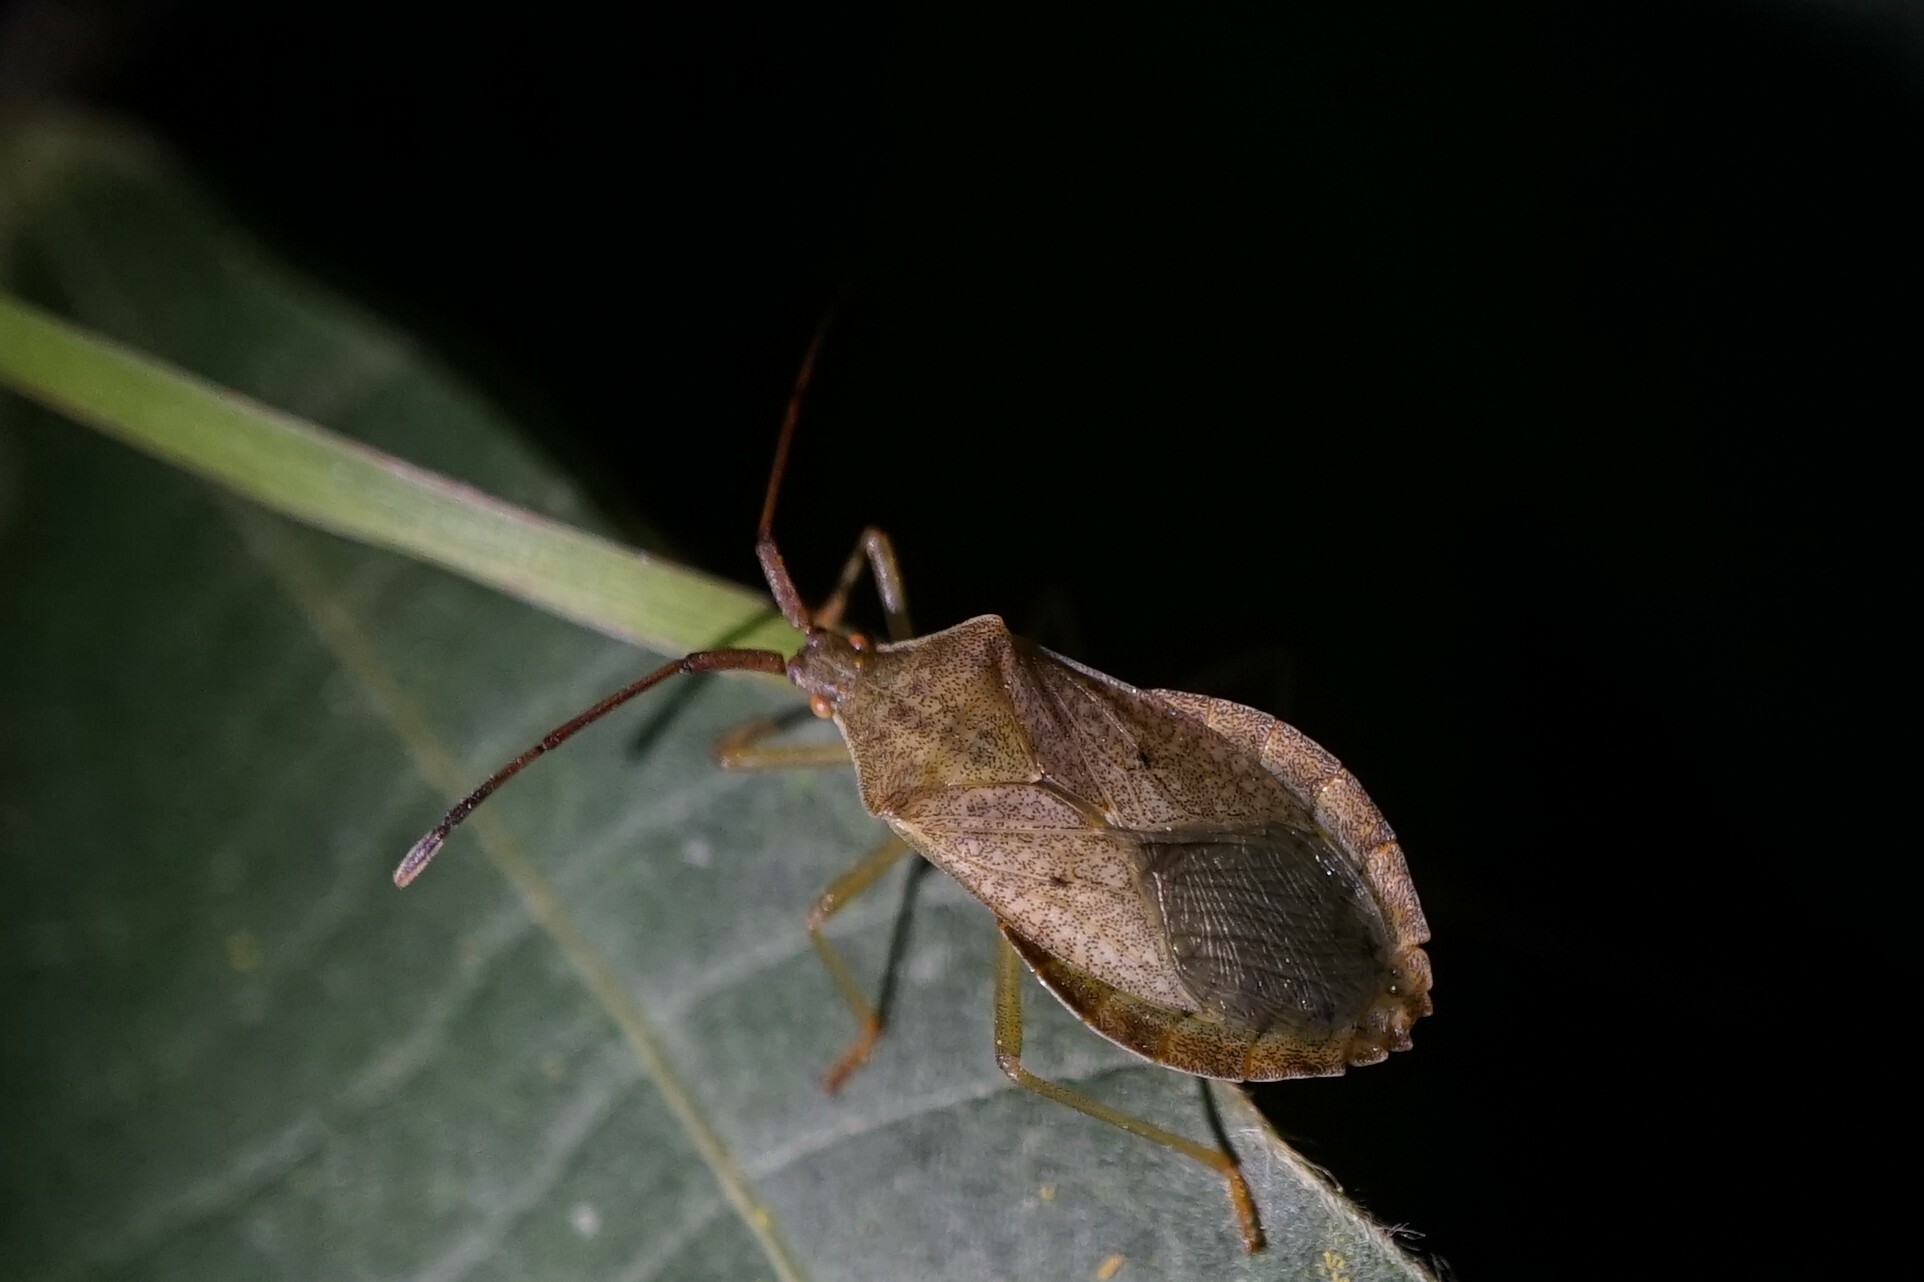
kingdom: Animalia
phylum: Arthropoda
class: Insecta
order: Hemiptera
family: Coreidae
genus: Homoeocerus
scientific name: Homoeocerus dilatatus
